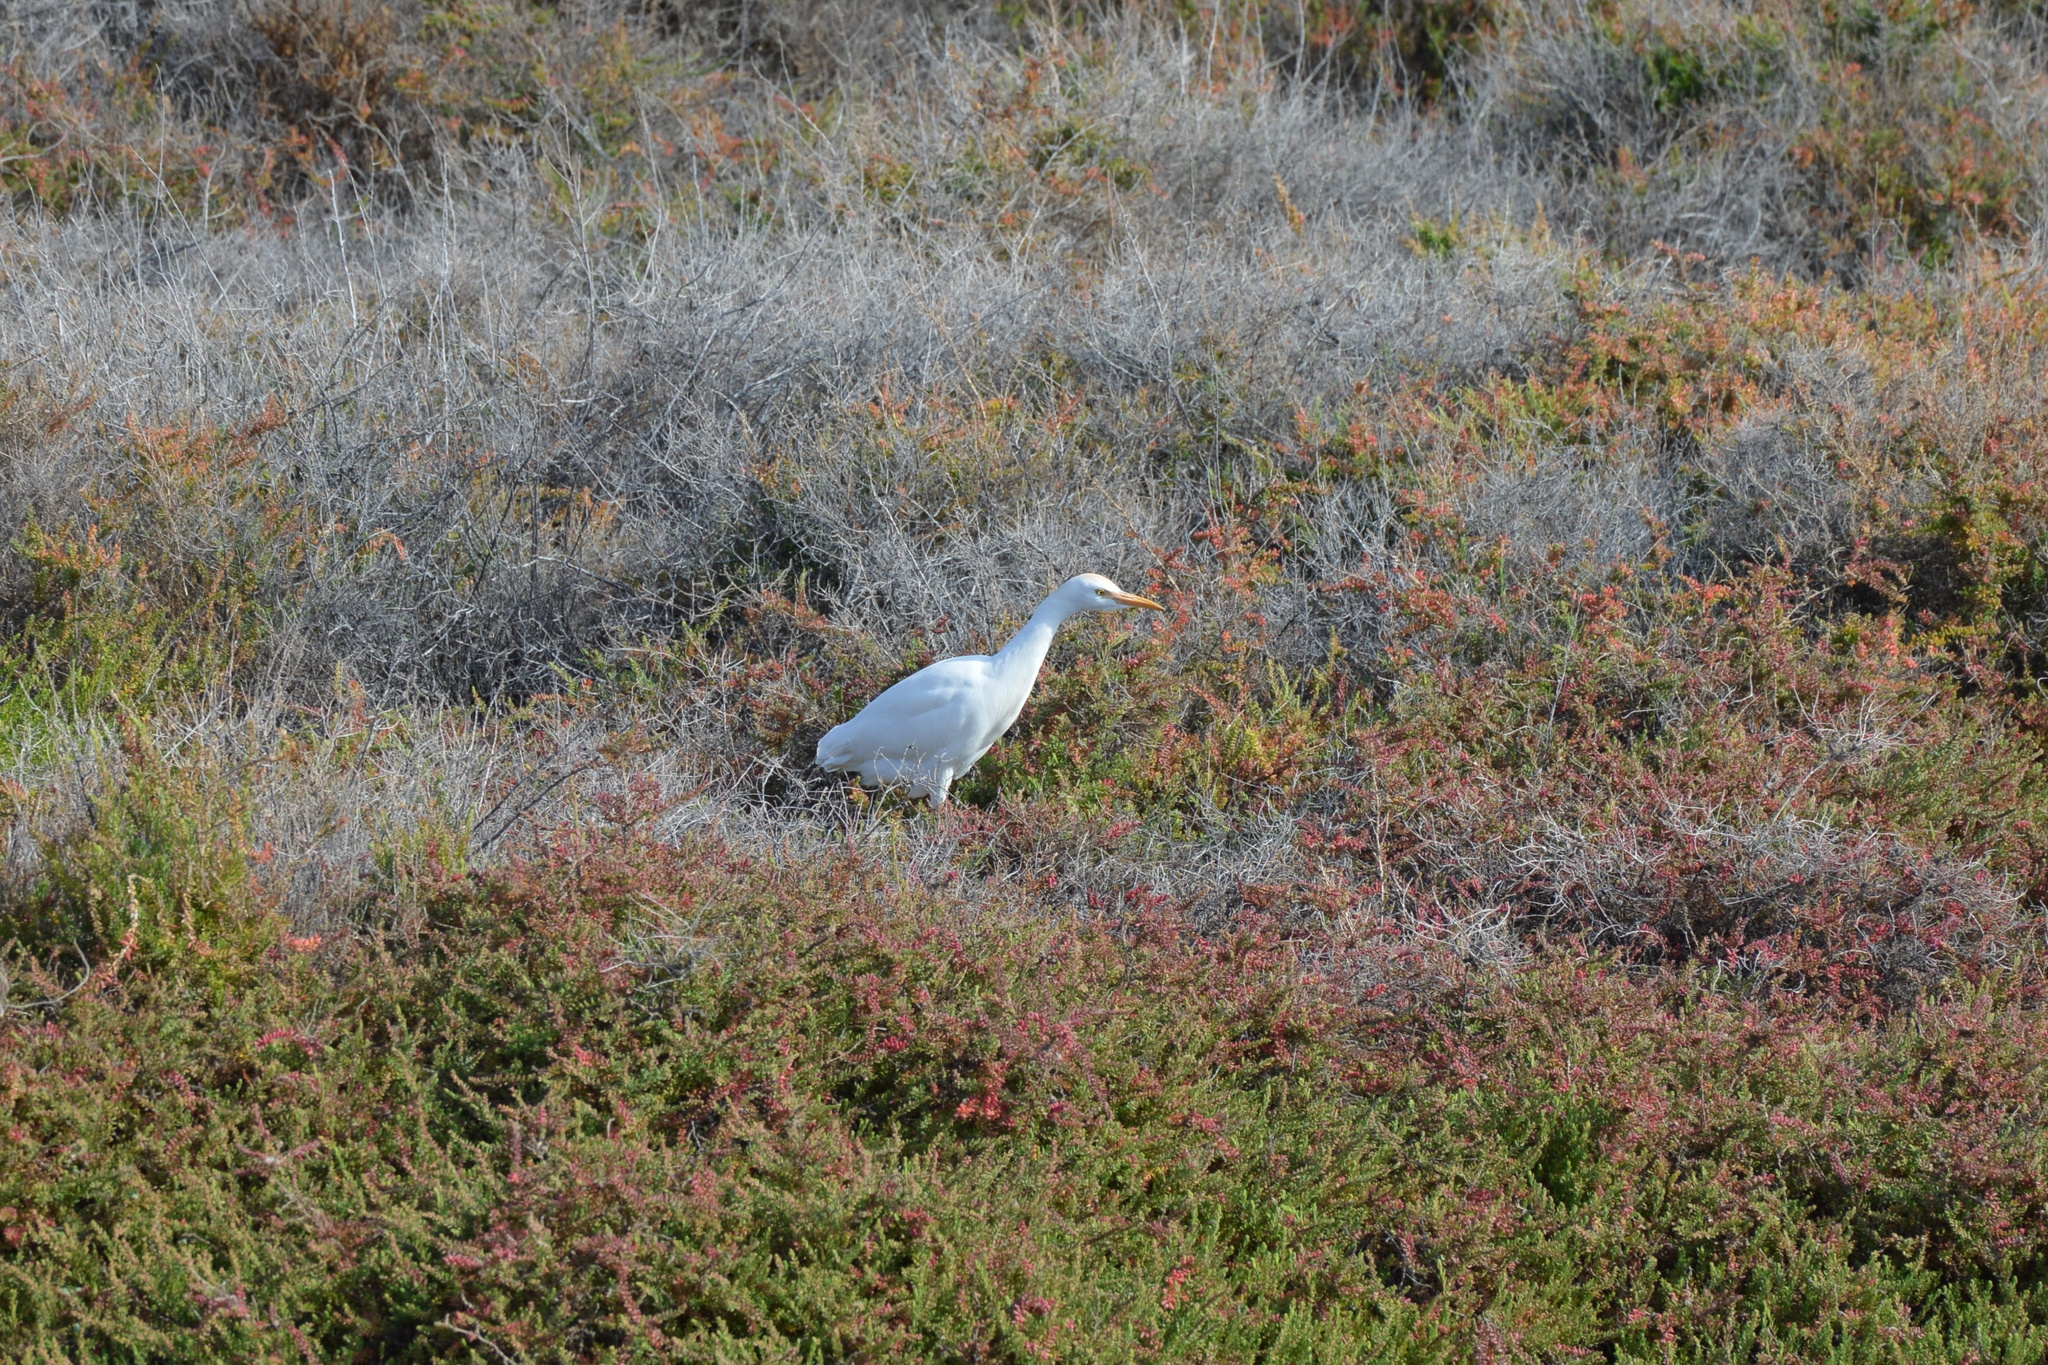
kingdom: Animalia
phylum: Chordata
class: Aves
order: Pelecaniformes
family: Ardeidae
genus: Bubulcus
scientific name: Bubulcus ibis
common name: Cattle egret
